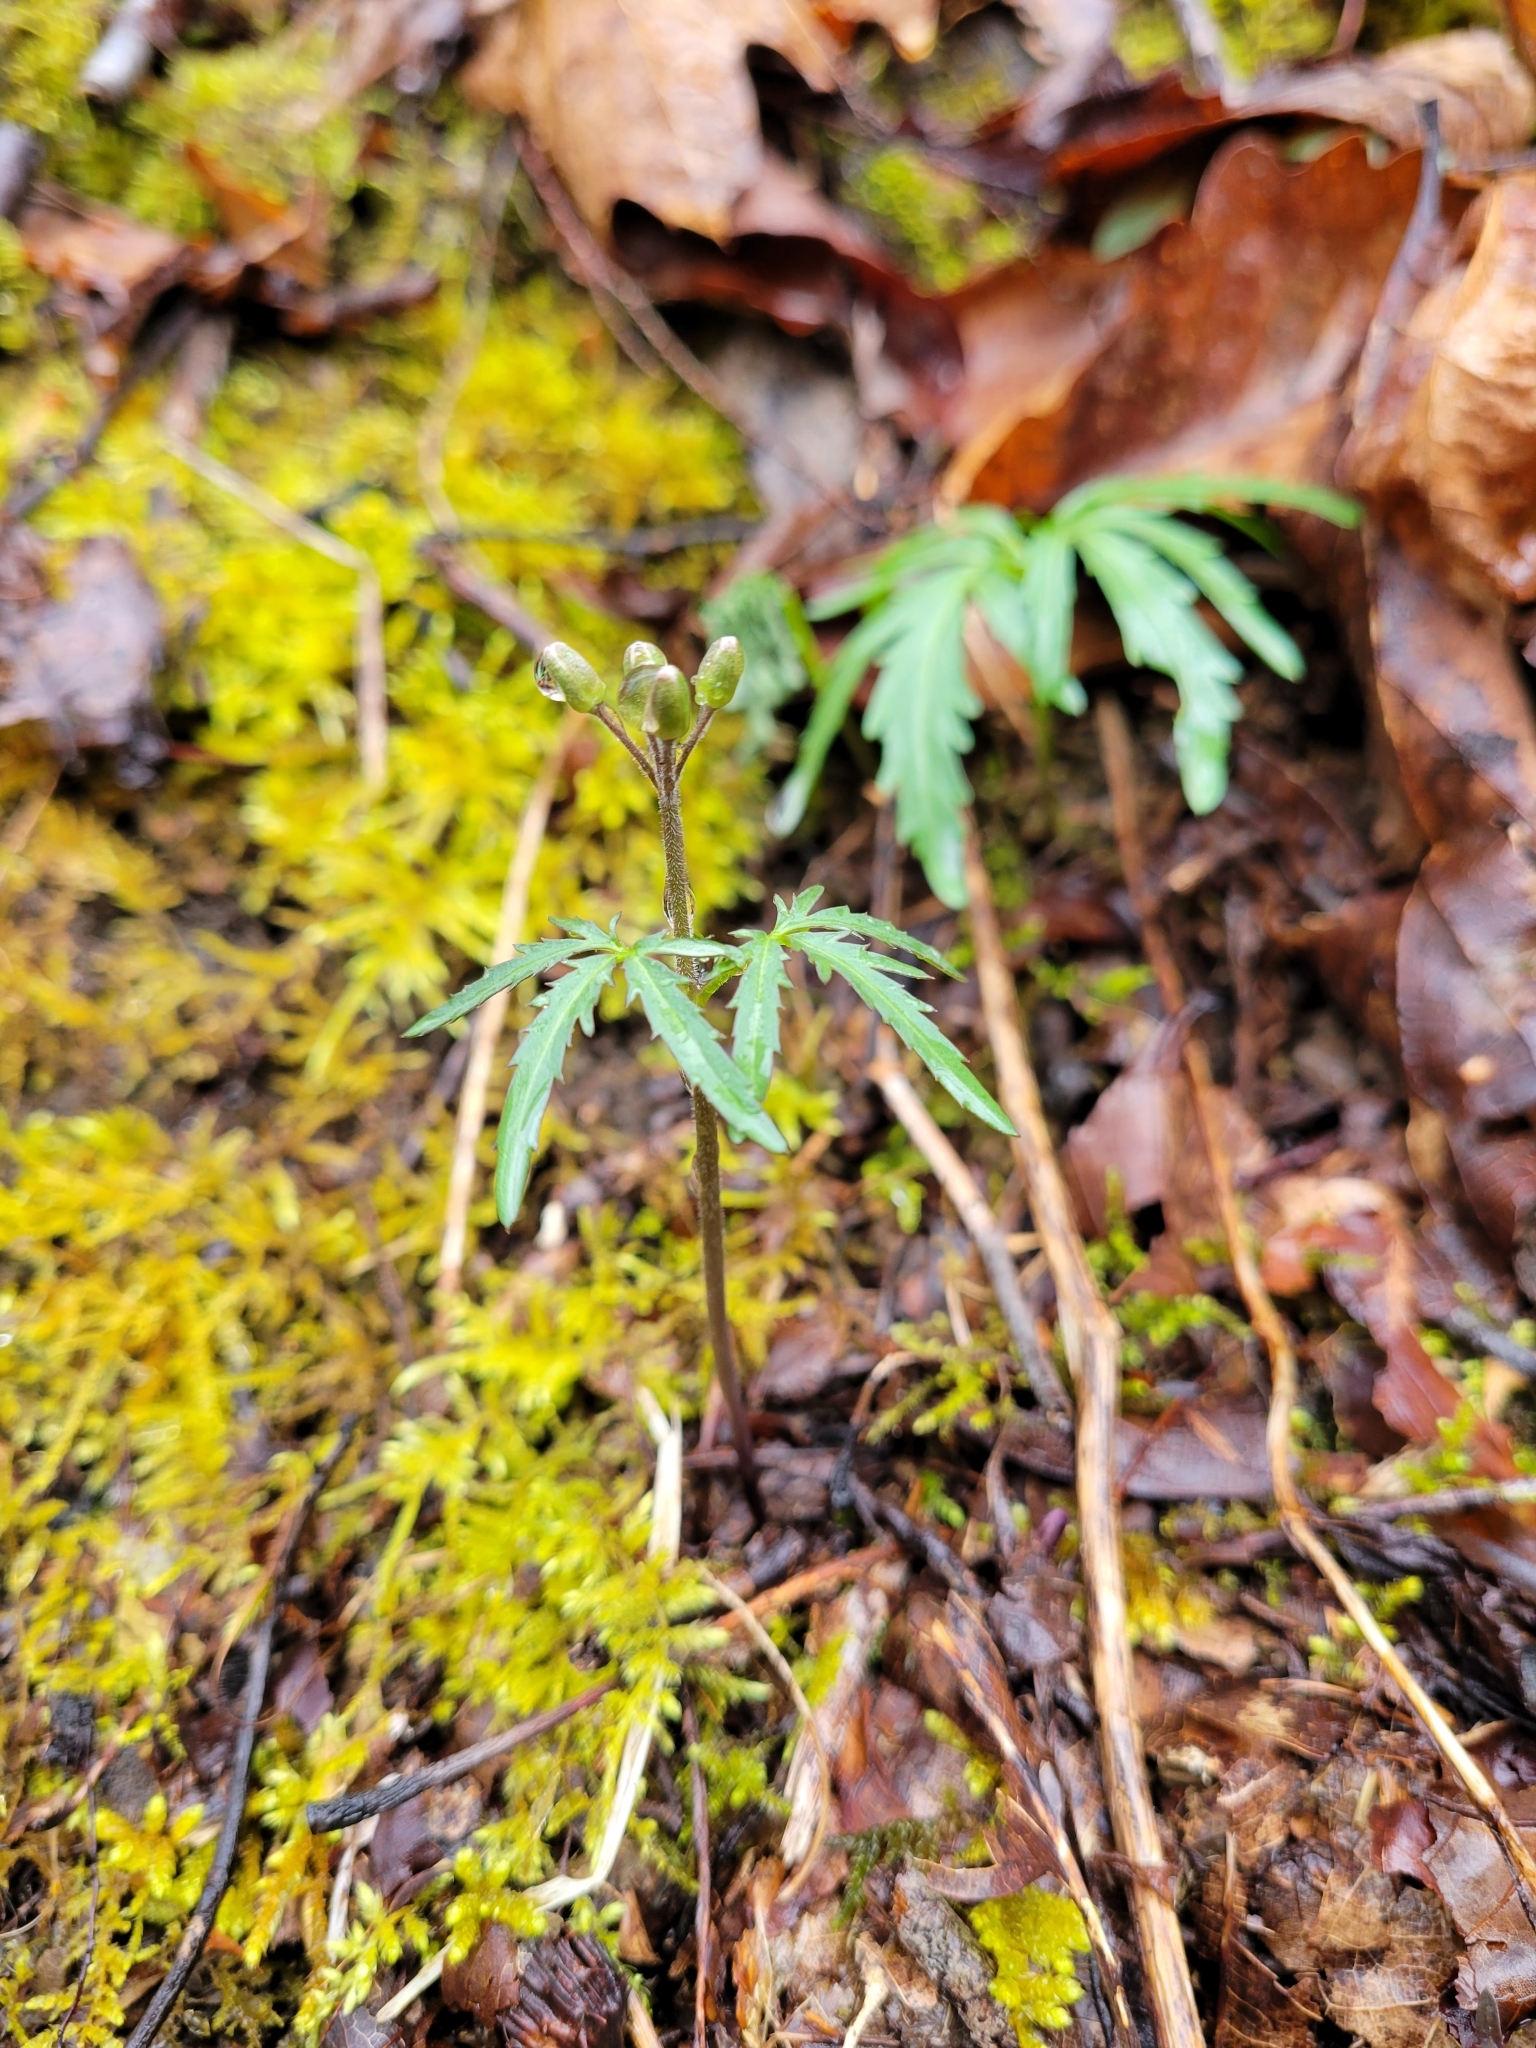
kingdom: Plantae
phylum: Tracheophyta
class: Magnoliopsida
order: Brassicales
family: Brassicaceae
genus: Cardamine
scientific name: Cardamine concatenata
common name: Cut-leaf toothcup
